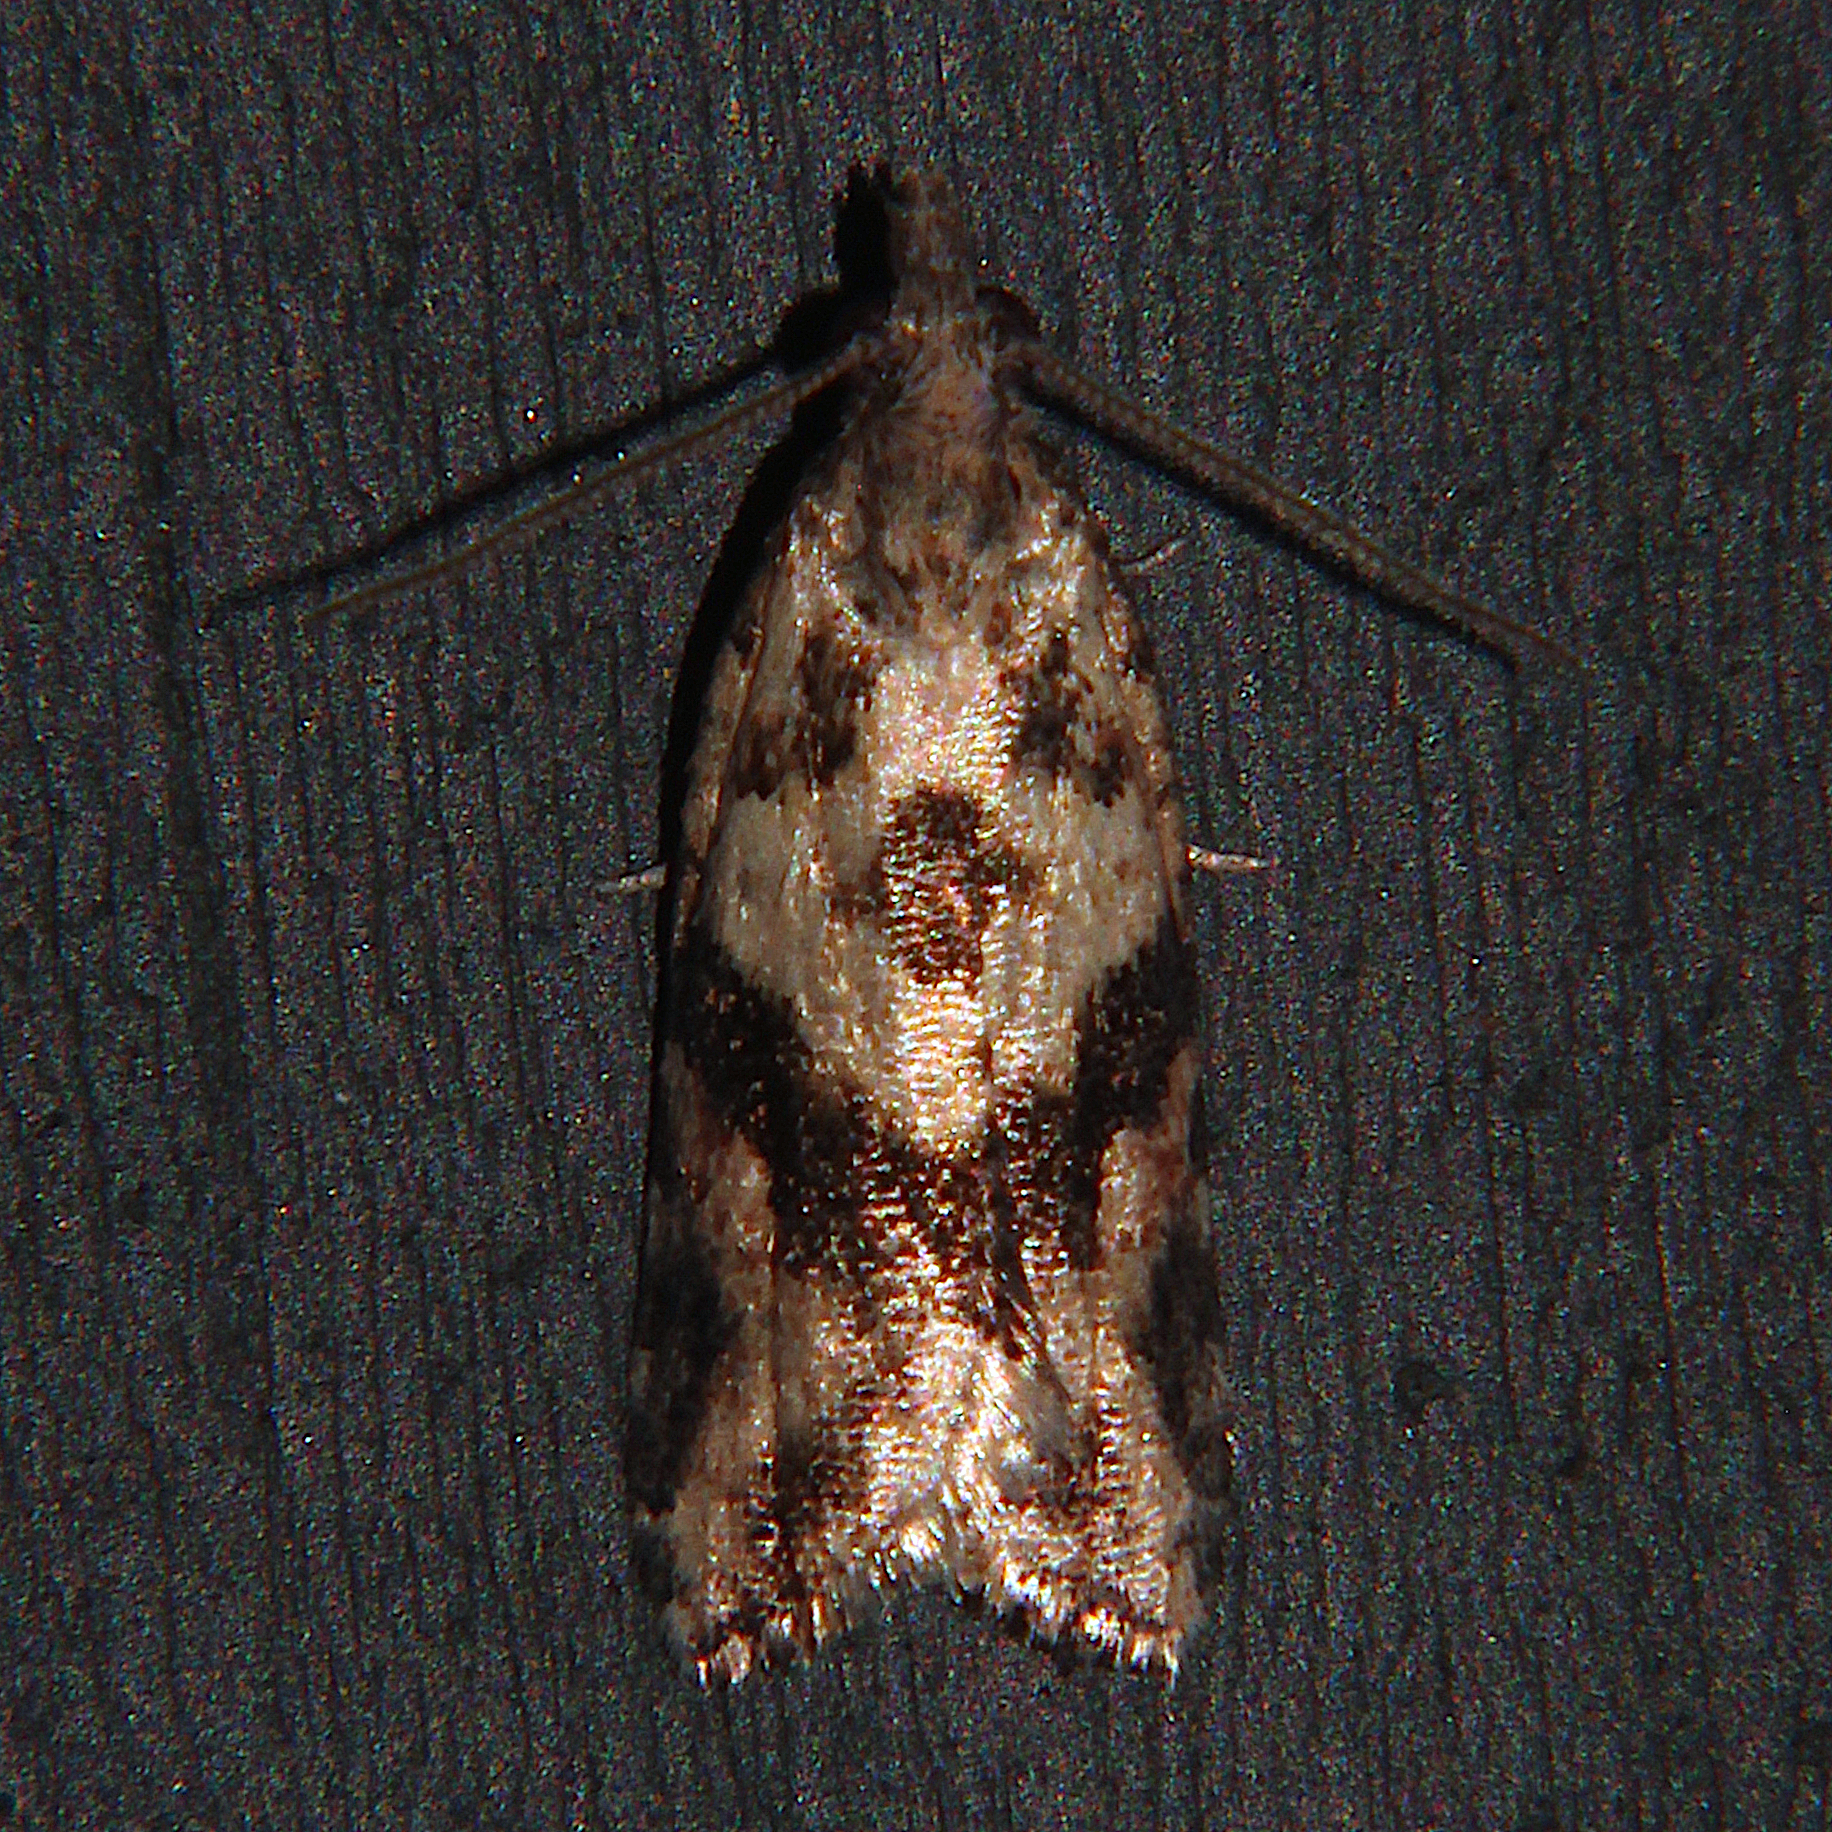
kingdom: Animalia
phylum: Arthropoda
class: Insecta
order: Lepidoptera
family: Tortricidae
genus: Capua
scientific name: Capua semiferana
